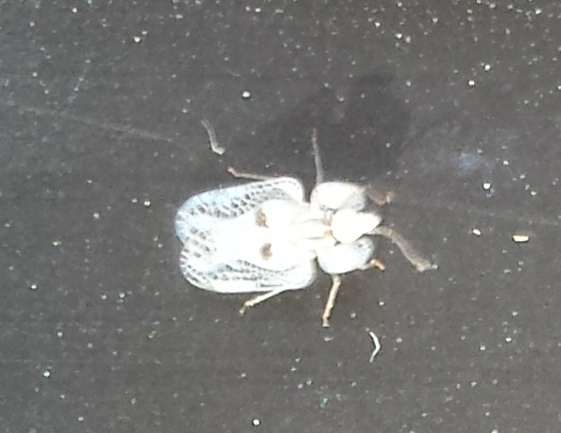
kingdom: Animalia
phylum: Arthropoda
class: Insecta
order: Hemiptera
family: Tingidae
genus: Corythucha
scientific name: Corythucha ciliata
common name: Sycamore lace bug
